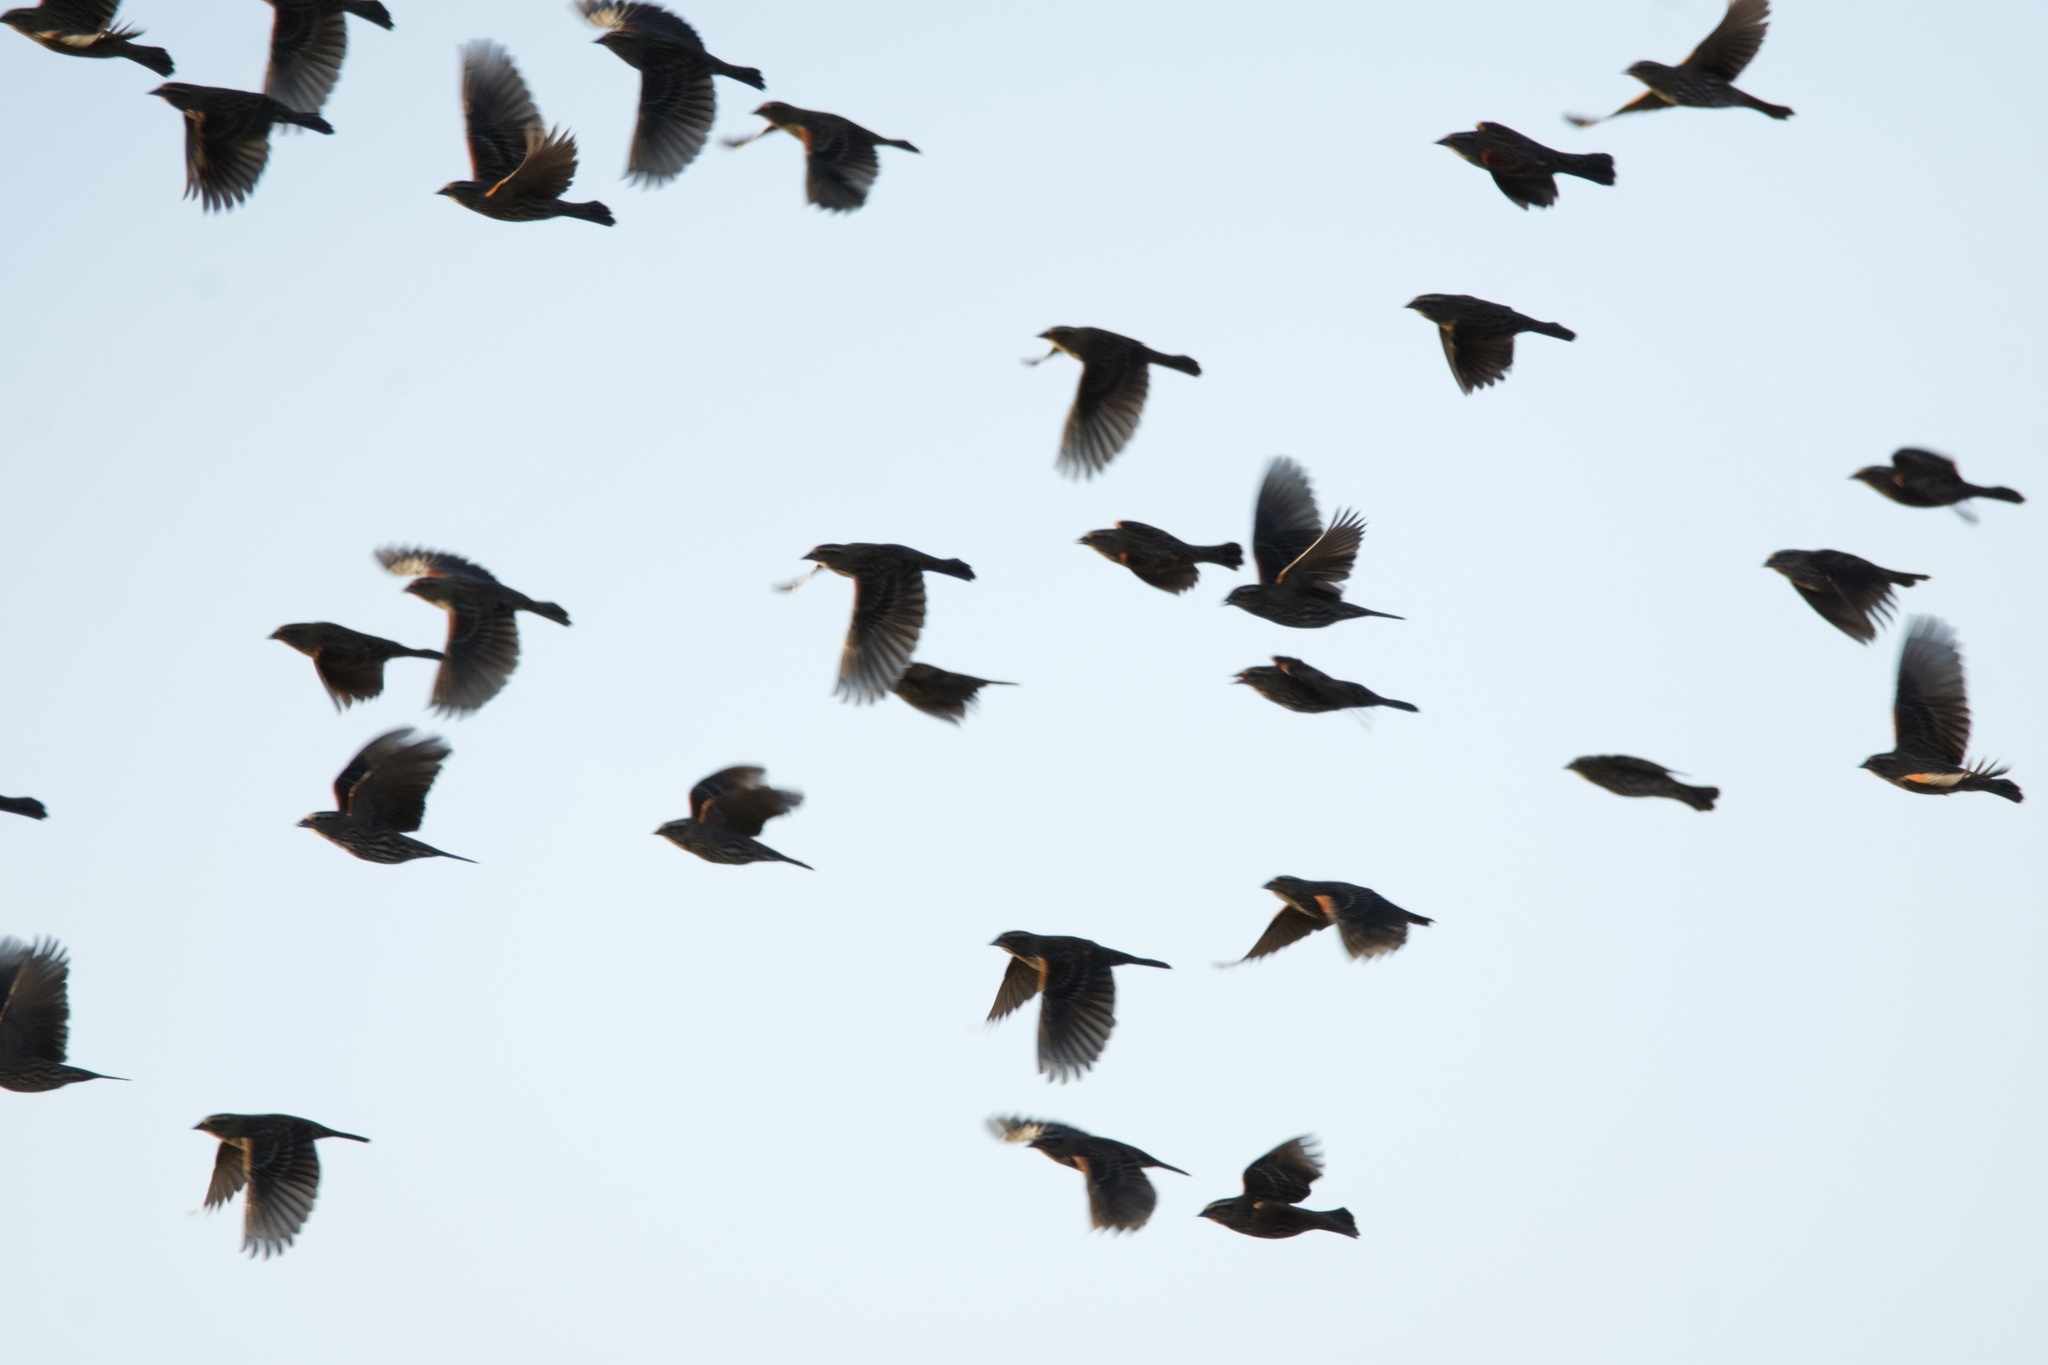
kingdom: Animalia
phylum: Chordata
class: Aves
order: Passeriformes
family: Icteridae
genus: Agelaius
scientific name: Agelaius phoeniceus
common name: Red-winged blackbird
